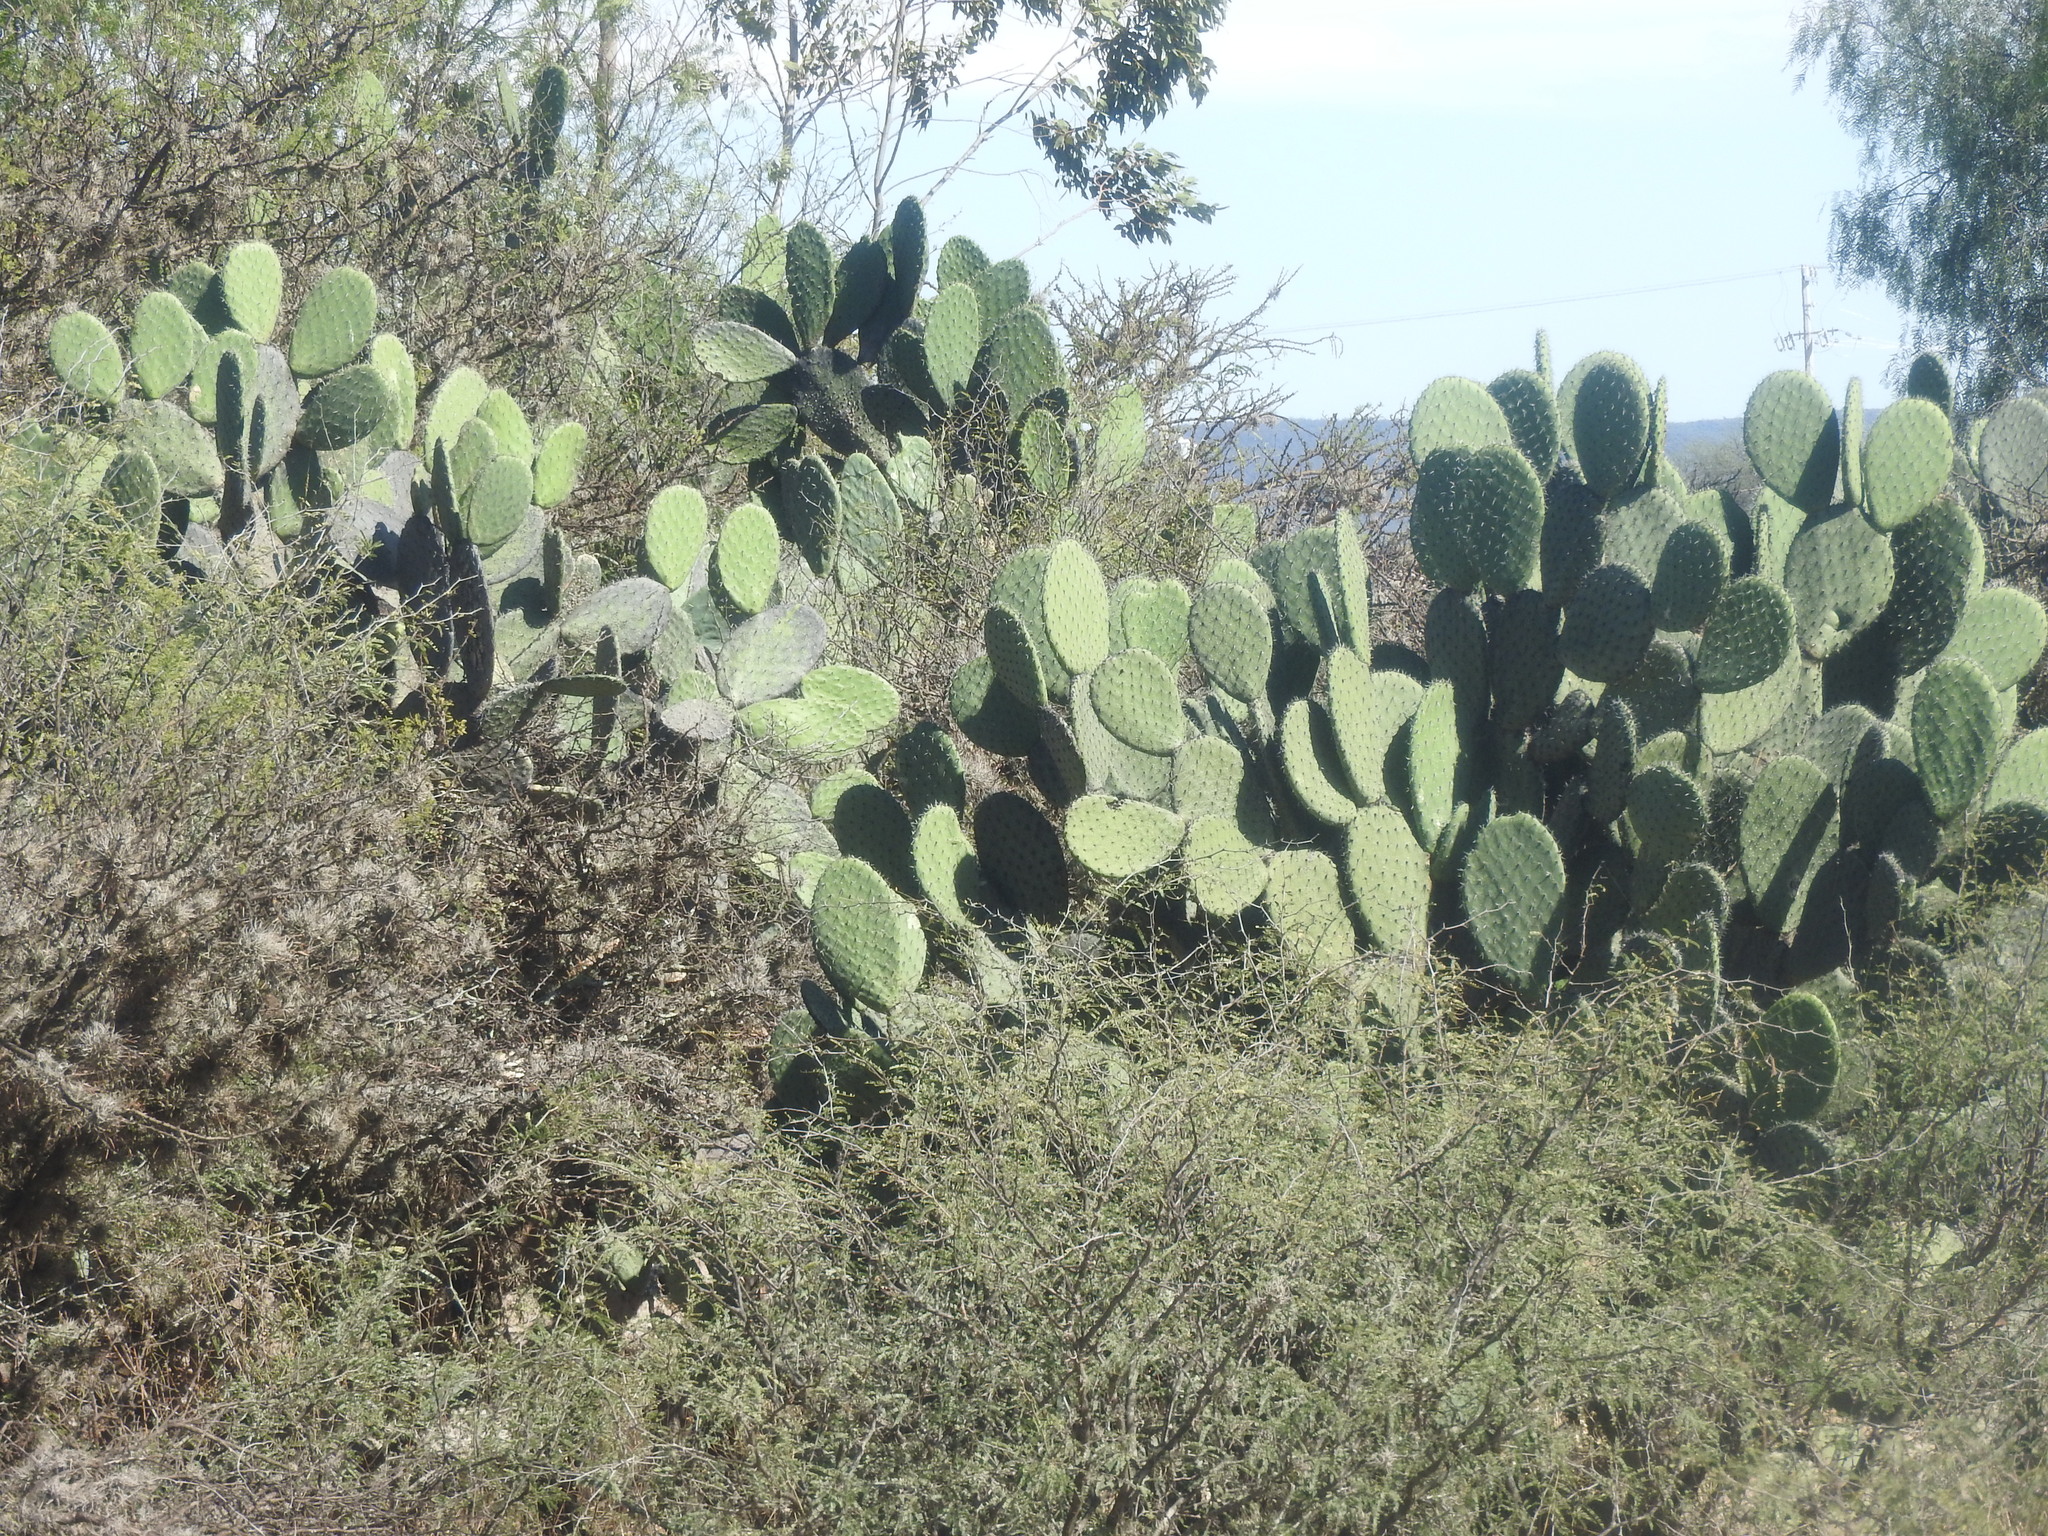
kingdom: Plantae
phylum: Tracheophyta
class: Magnoliopsida
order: Caryophyllales
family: Cactaceae
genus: Opuntia
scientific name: Opuntia joconostle
